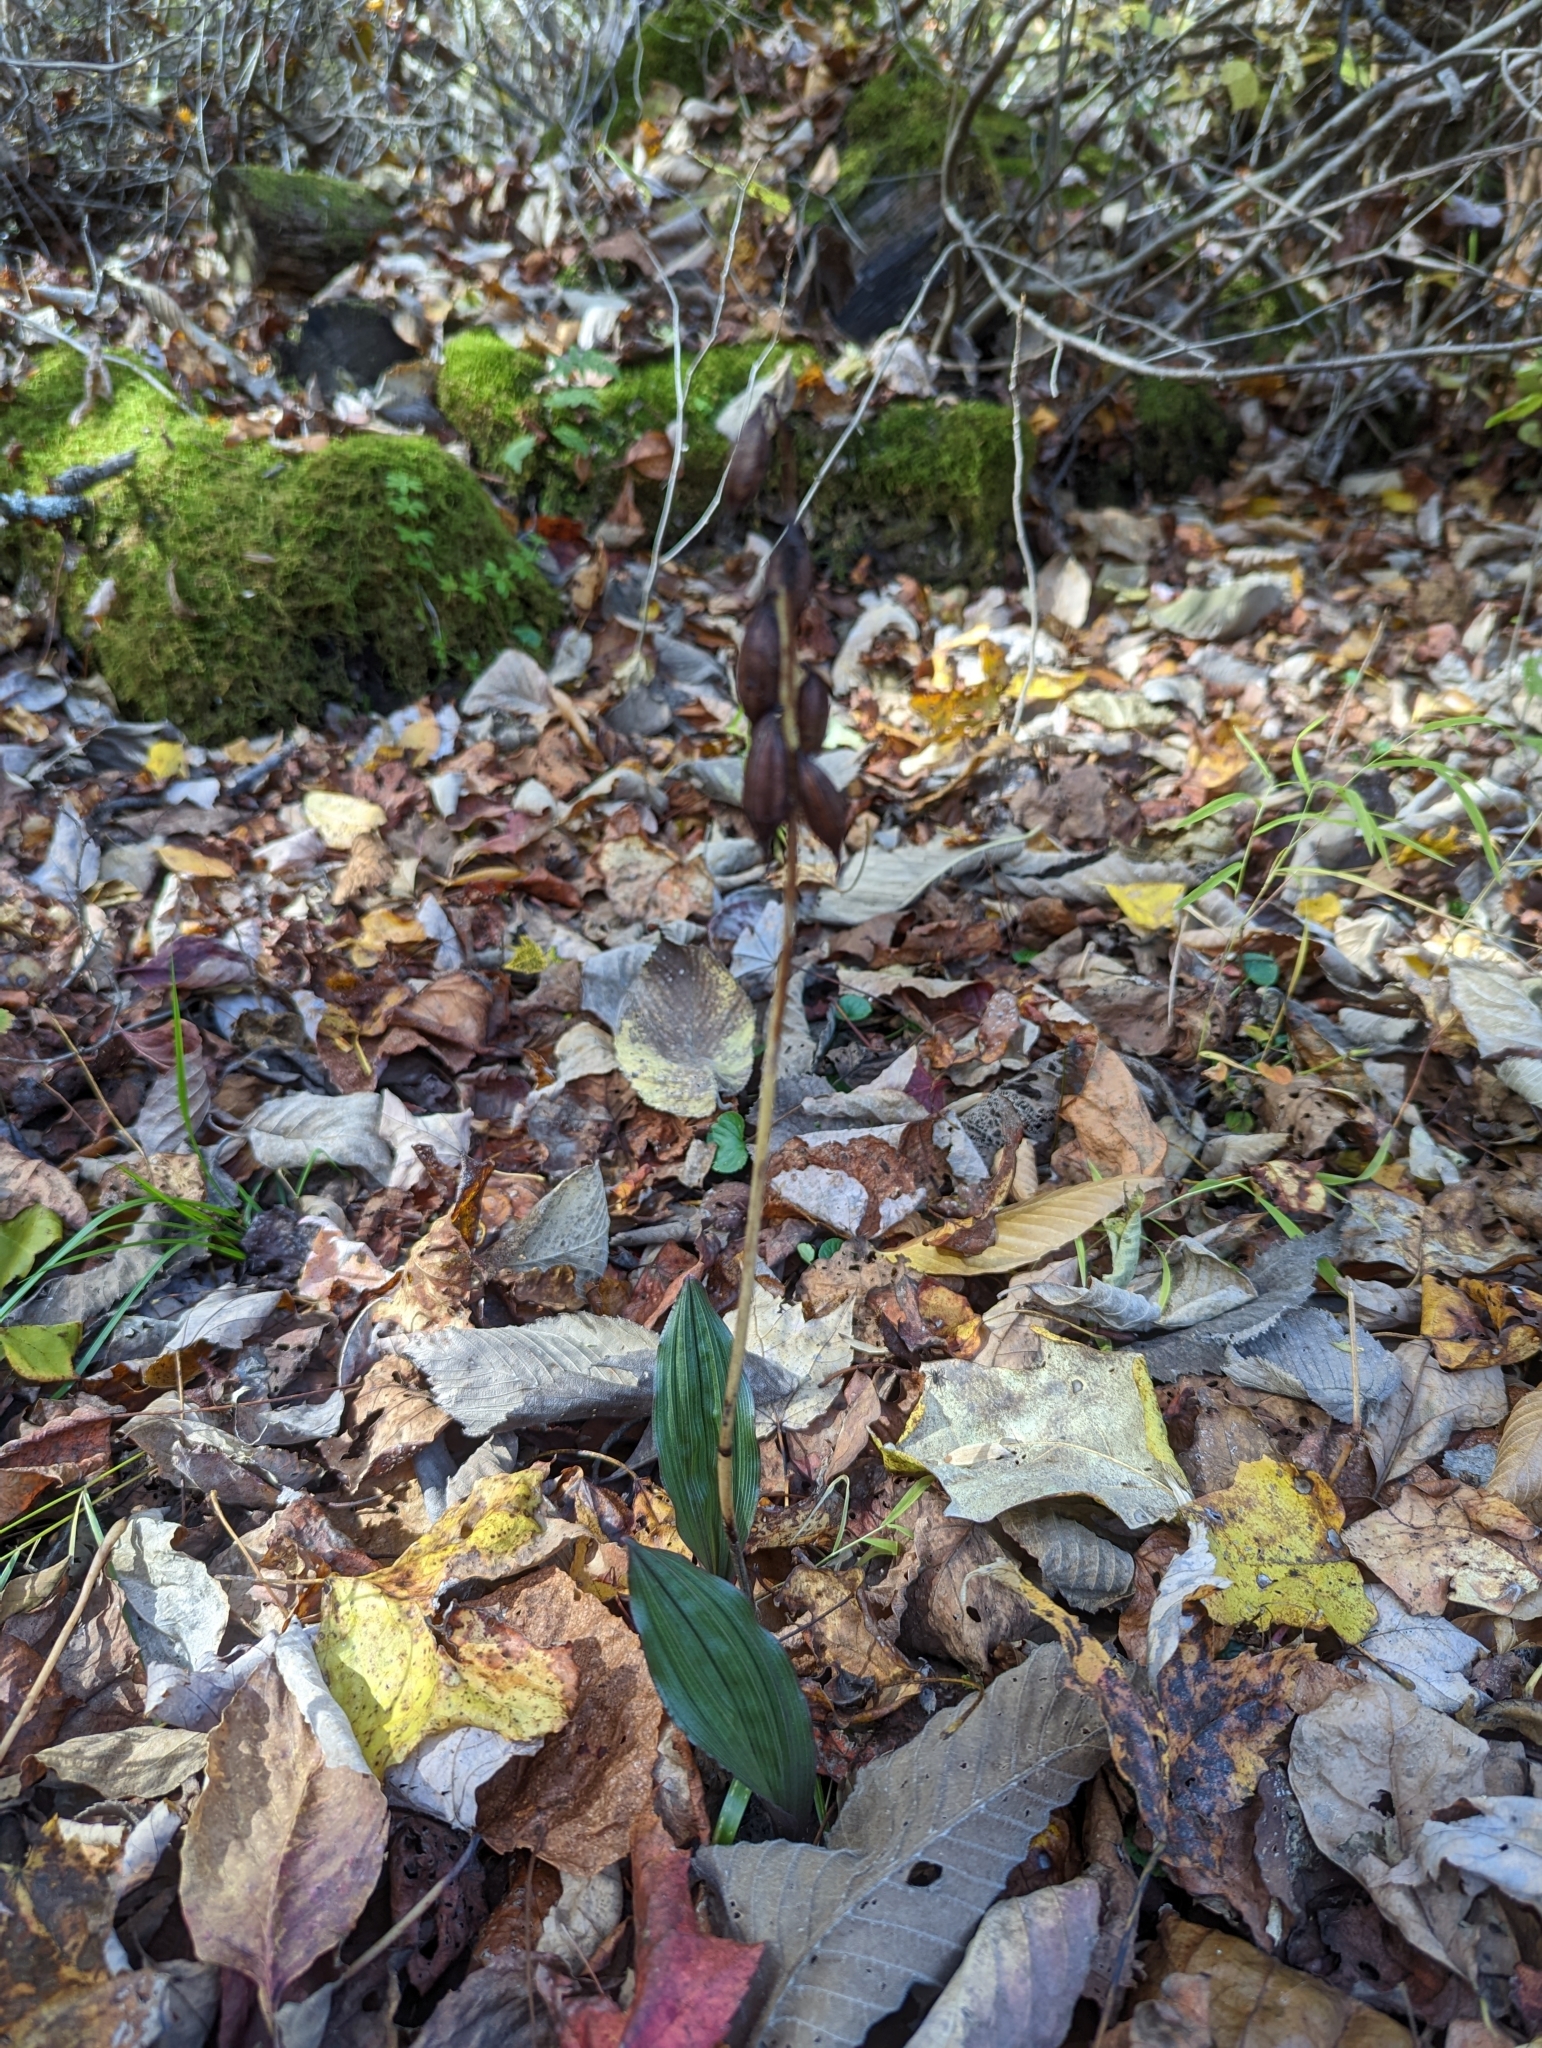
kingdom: Plantae
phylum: Tracheophyta
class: Liliopsida
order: Asparagales
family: Orchidaceae
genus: Aplectrum
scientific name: Aplectrum hyemale
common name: Adam-and-eve
